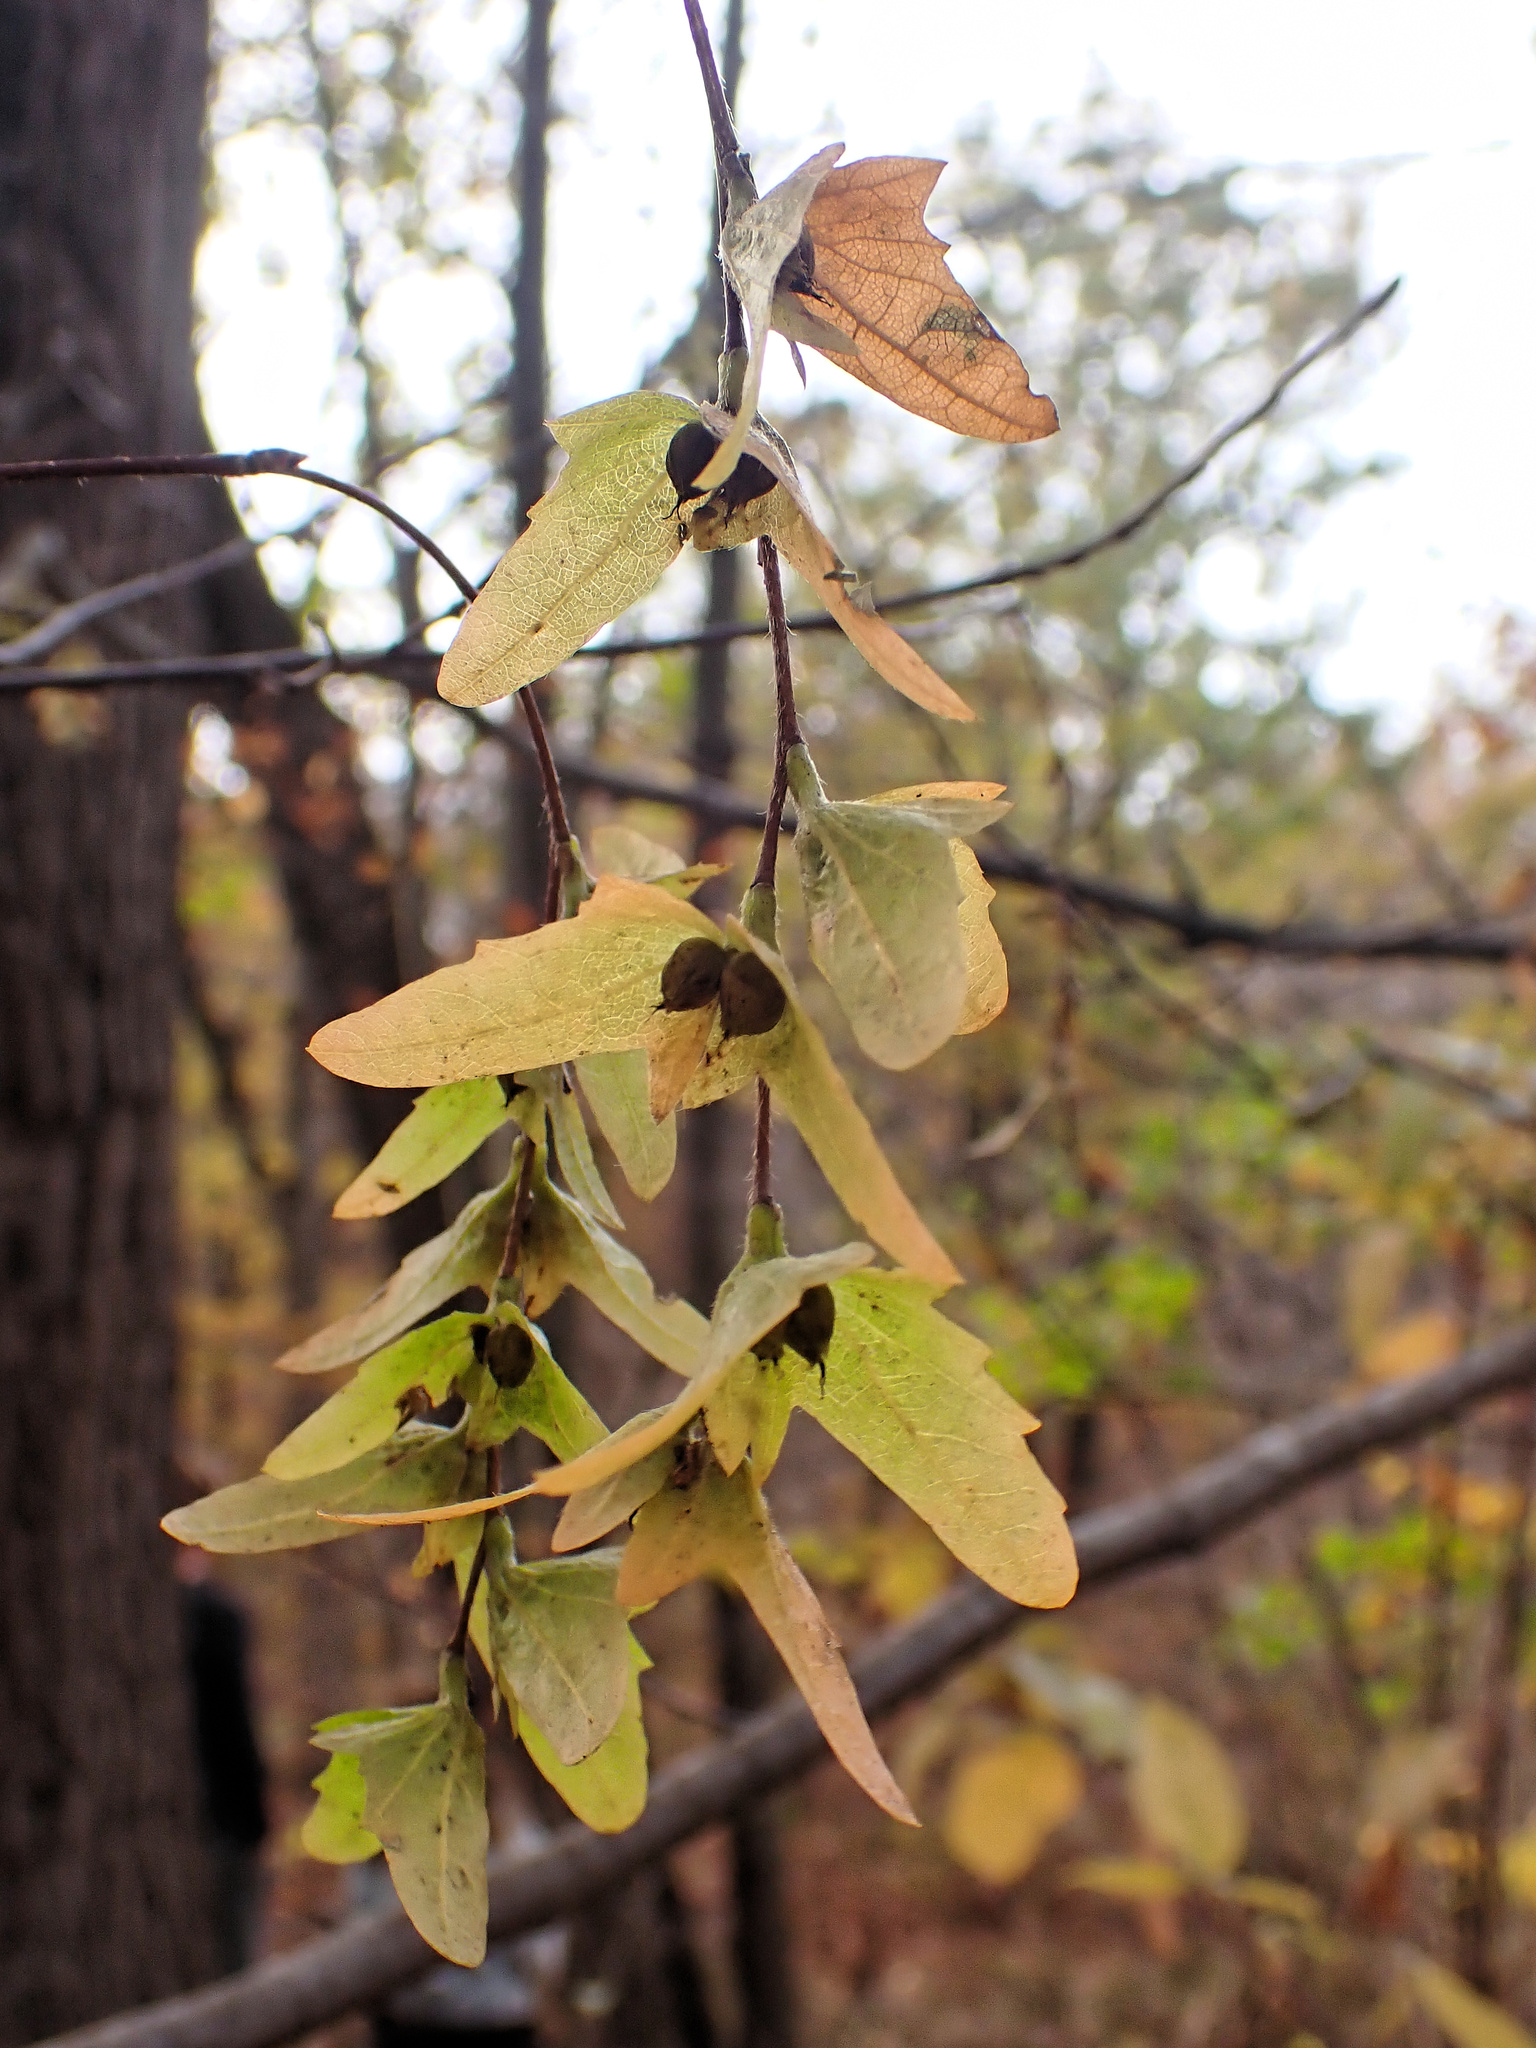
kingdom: Plantae
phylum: Tracheophyta
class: Magnoliopsida
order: Fagales
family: Betulaceae
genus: Carpinus
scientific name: Carpinus caroliniana
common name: American hornbeam
